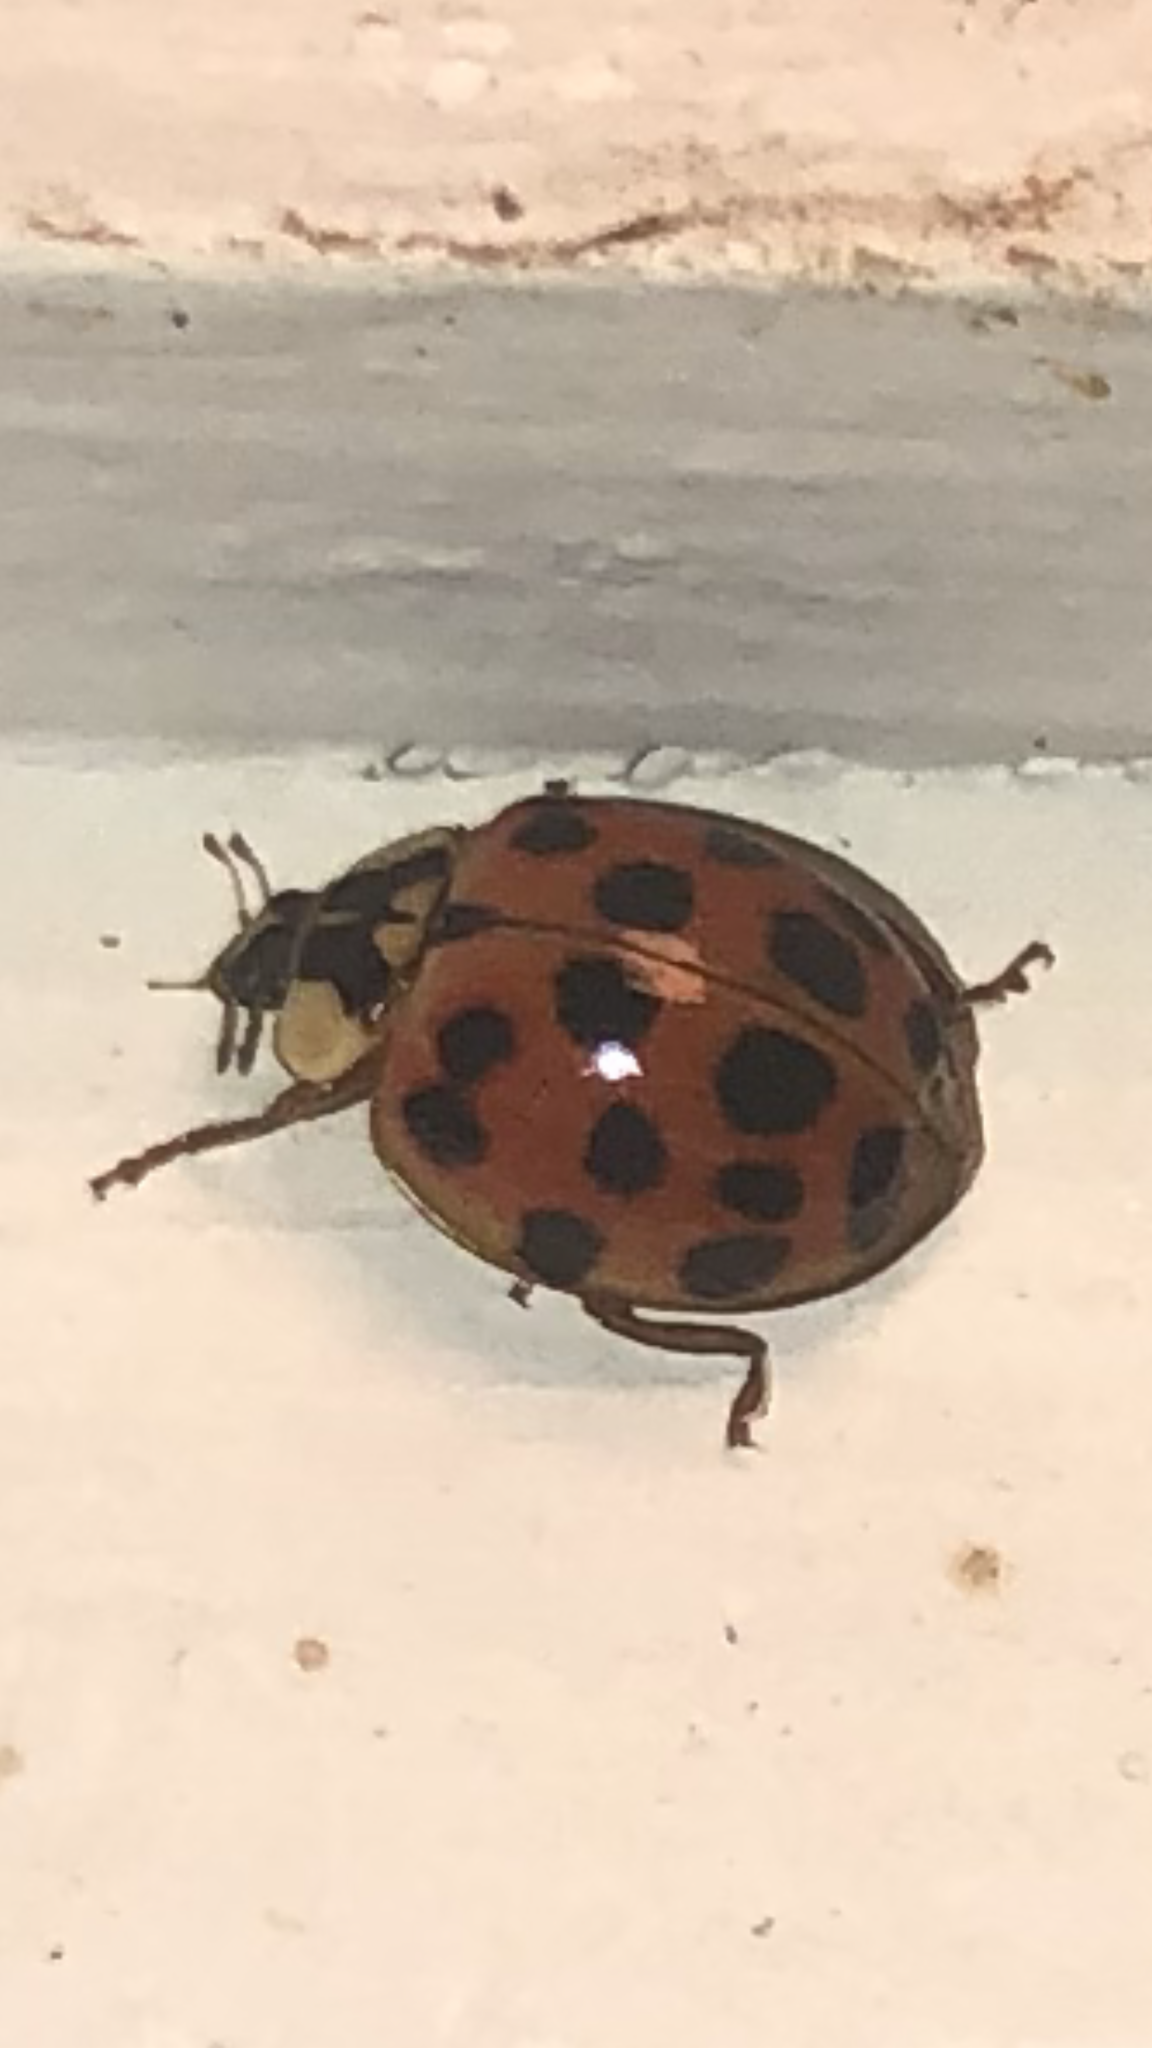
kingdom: Animalia
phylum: Arthropoda
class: Insecta
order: Coleoptera
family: Coccinellidae
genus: Harmonia
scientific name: Harmonia axyridis
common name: Harlequin ladybird
